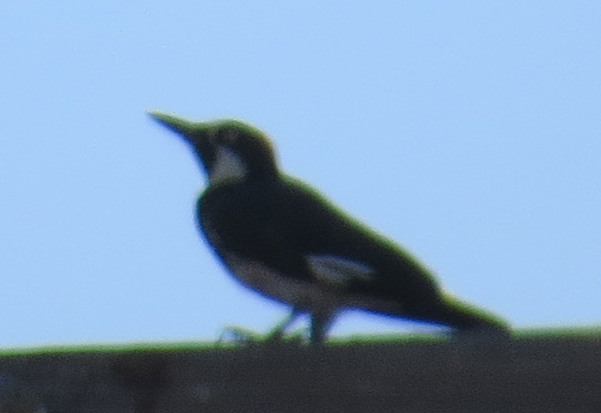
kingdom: Animalia
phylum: Chordata
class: Aves
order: Piciformes
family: Picidae
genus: Melanerpes
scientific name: Melanerpes formicivorus
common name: Acorn woodpecker
